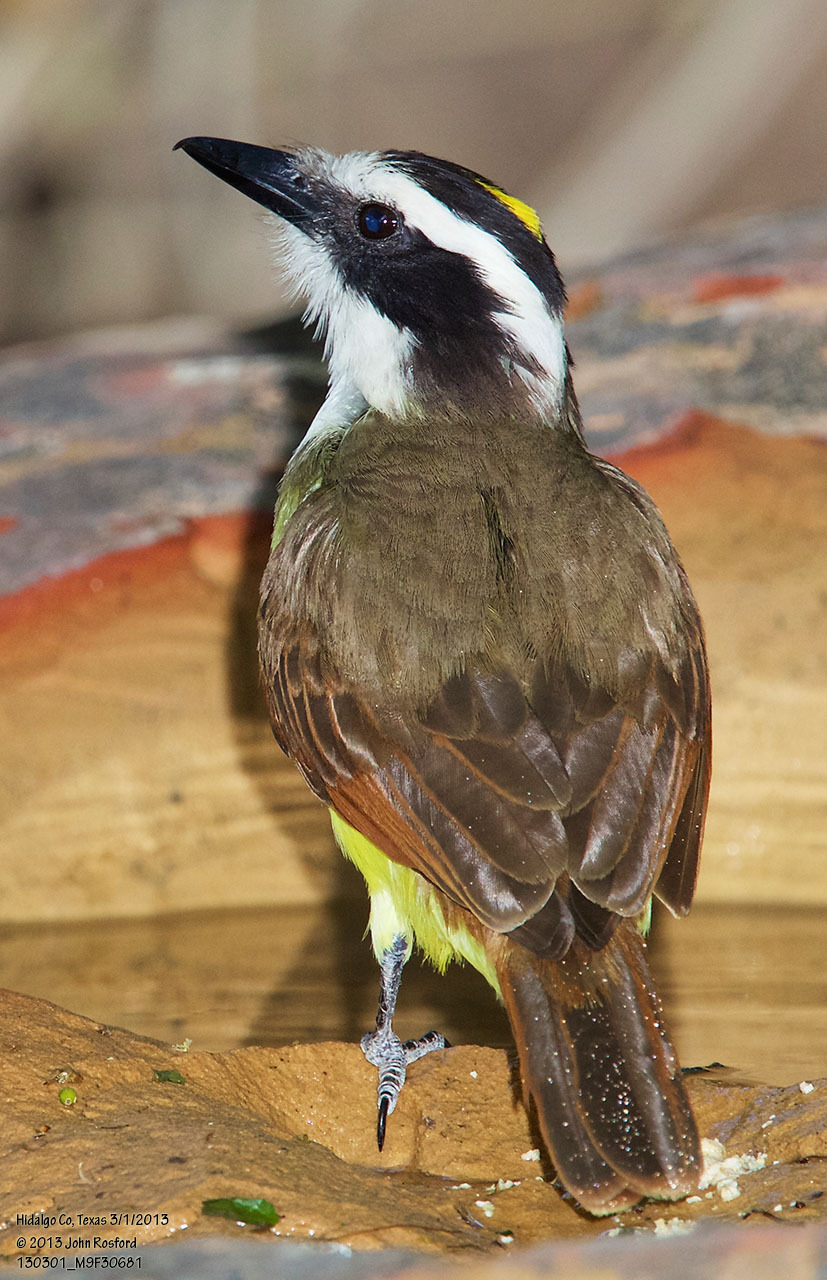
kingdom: Animalia
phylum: Chordata
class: Aves
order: Passeriformes
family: Tyrannidae
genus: Pitangus
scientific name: Pitangus sulphuratus
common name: Great kiskadee
